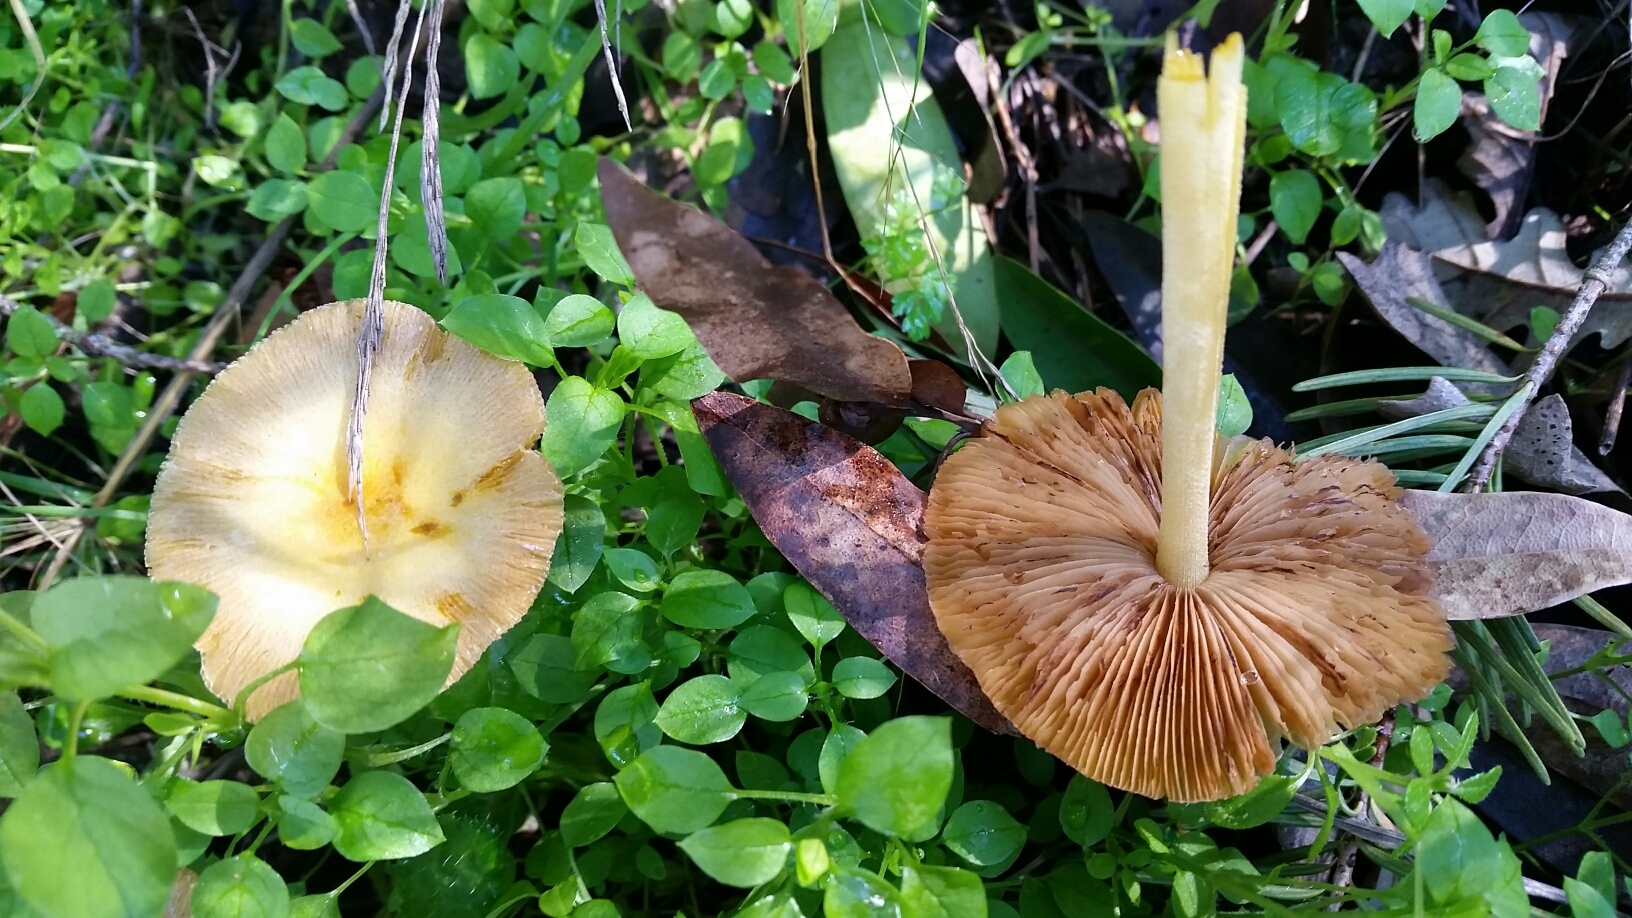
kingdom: Fungi
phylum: Basidiomycota
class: Agaricomycetes
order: Agaricales
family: Bolbitiaceae
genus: Bolbitius
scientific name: Bolbitius titubans
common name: Yellow fieldcap
